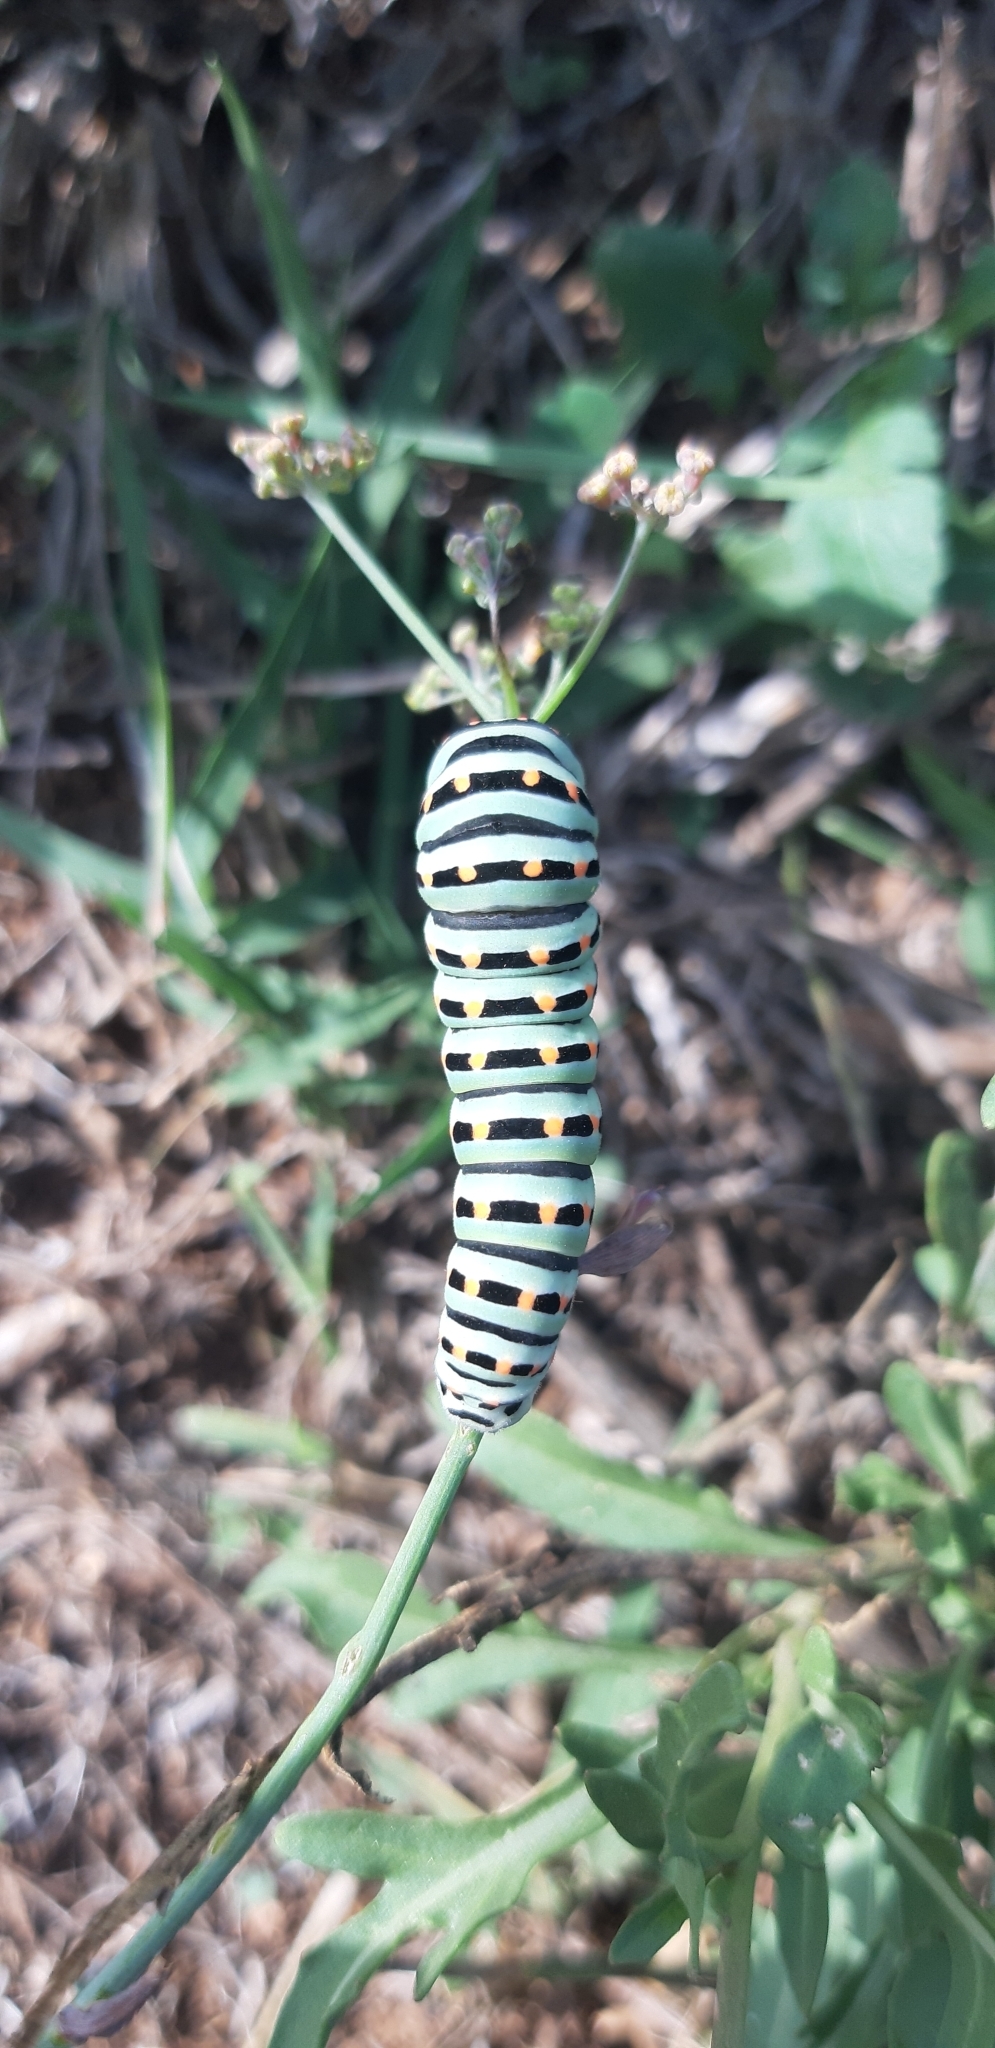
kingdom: Animalia
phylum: Arthropoda
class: Insecta
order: Lepidoptera
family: Papilionidae
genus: Papilio
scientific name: Papilio machaon
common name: Swallowtail
